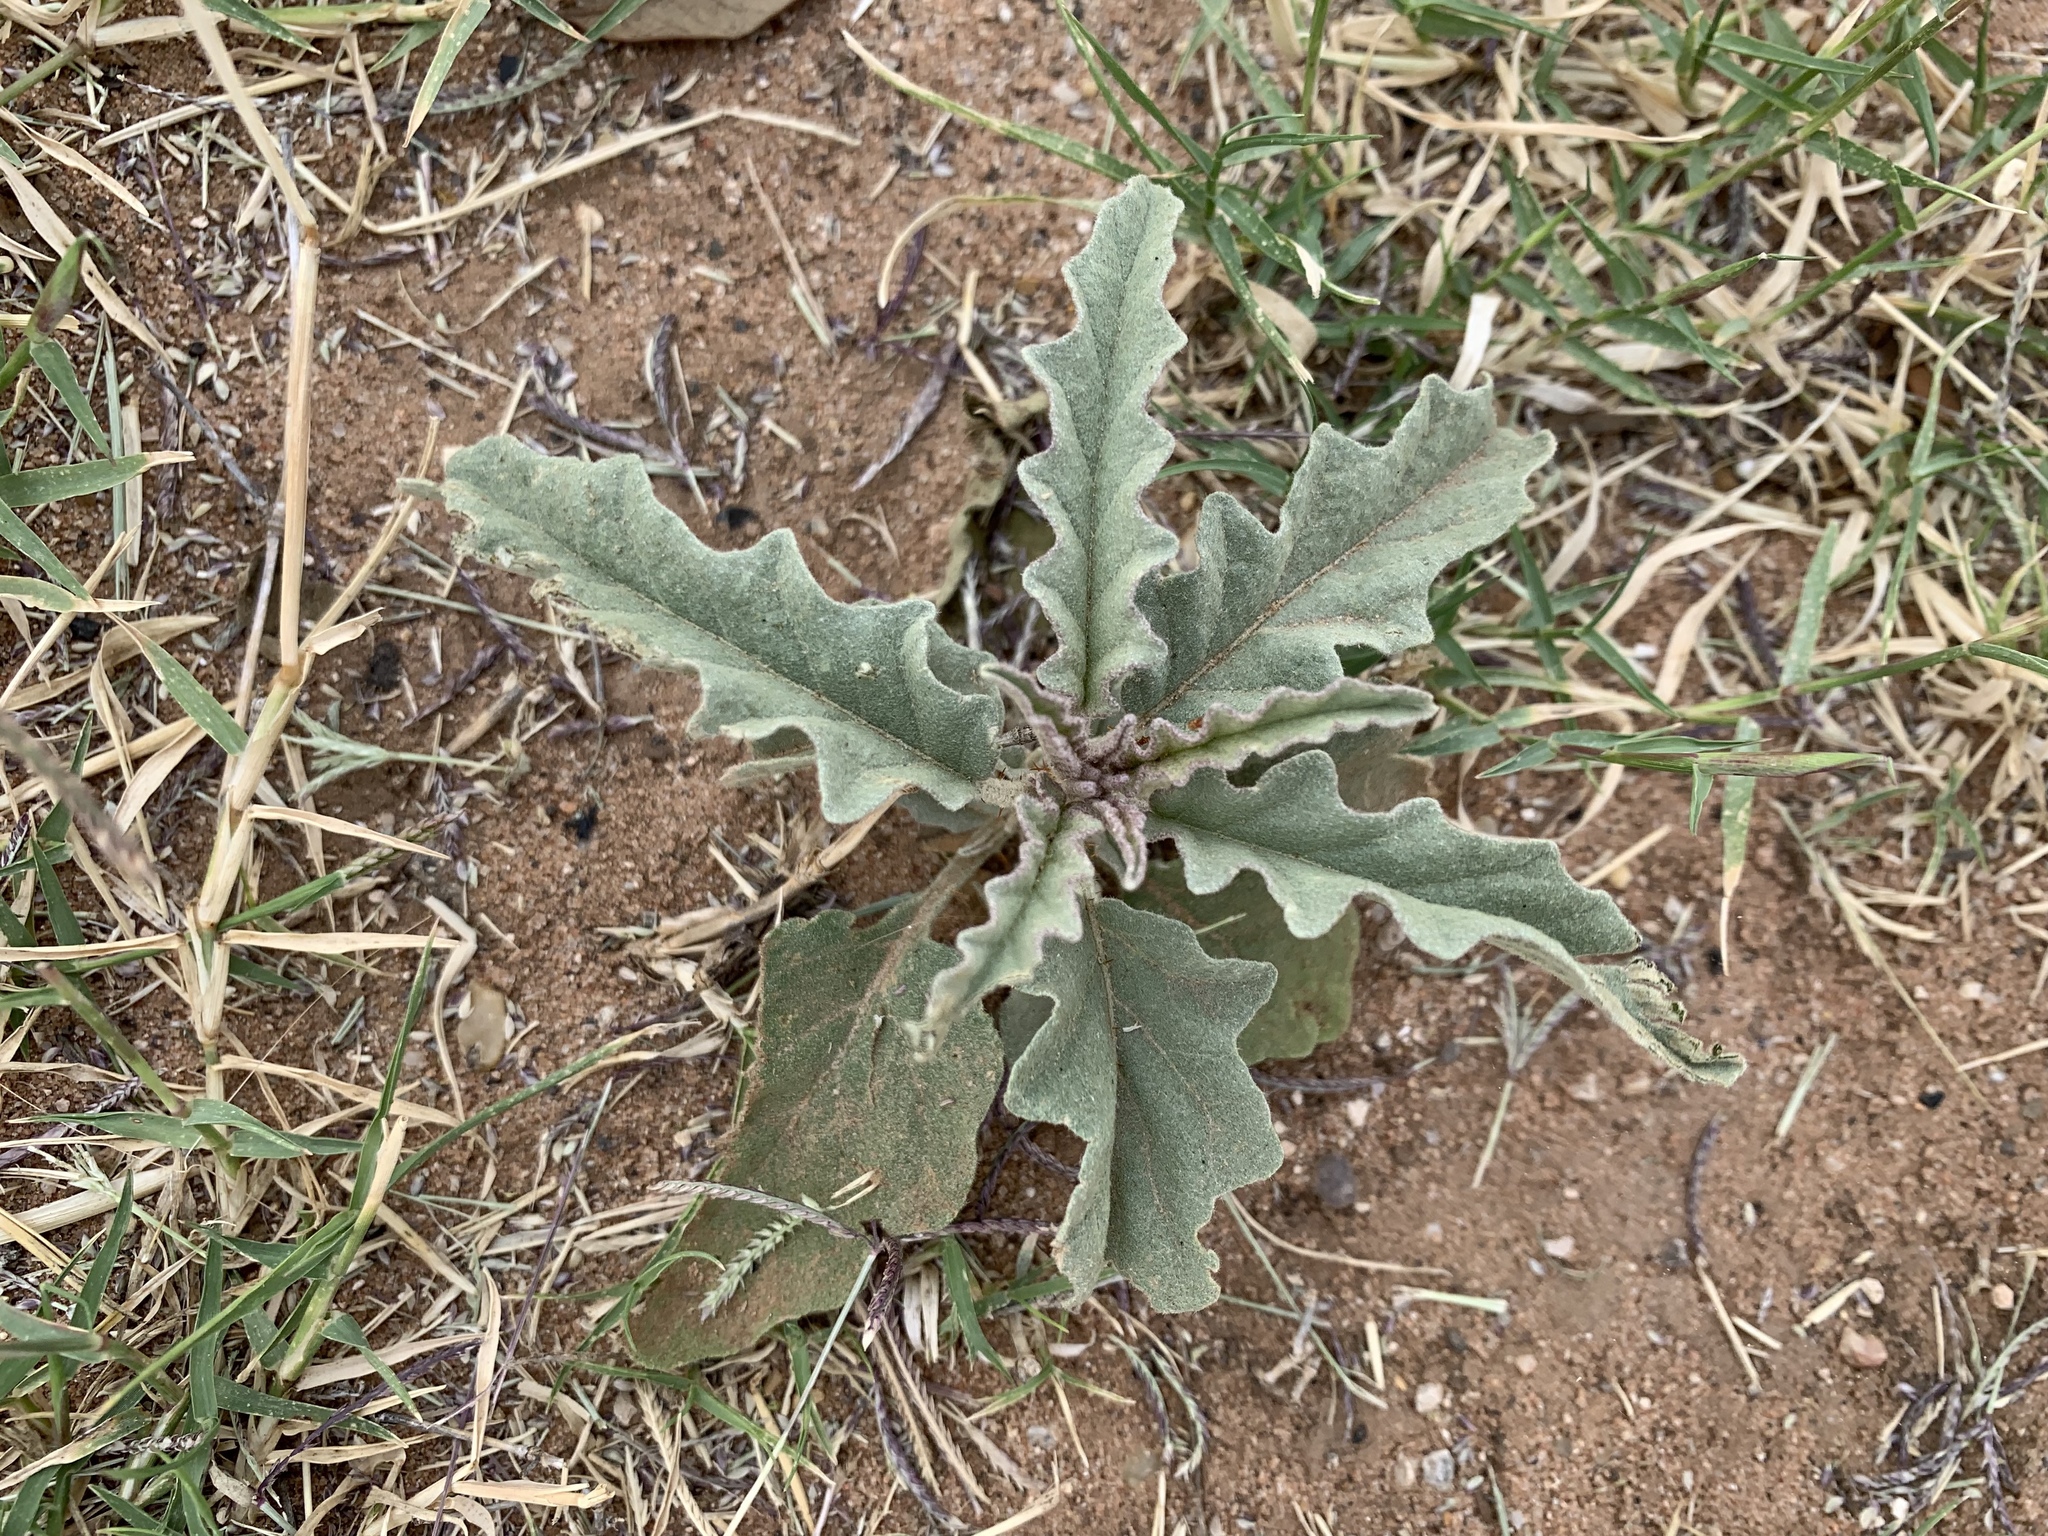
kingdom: Plantae
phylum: Tracheophyta
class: Magnoliopsida
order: Solanales
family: Solanaceae
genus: Solanum
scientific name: Solanum elaeagnifolium
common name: Silverleaf nightshade
